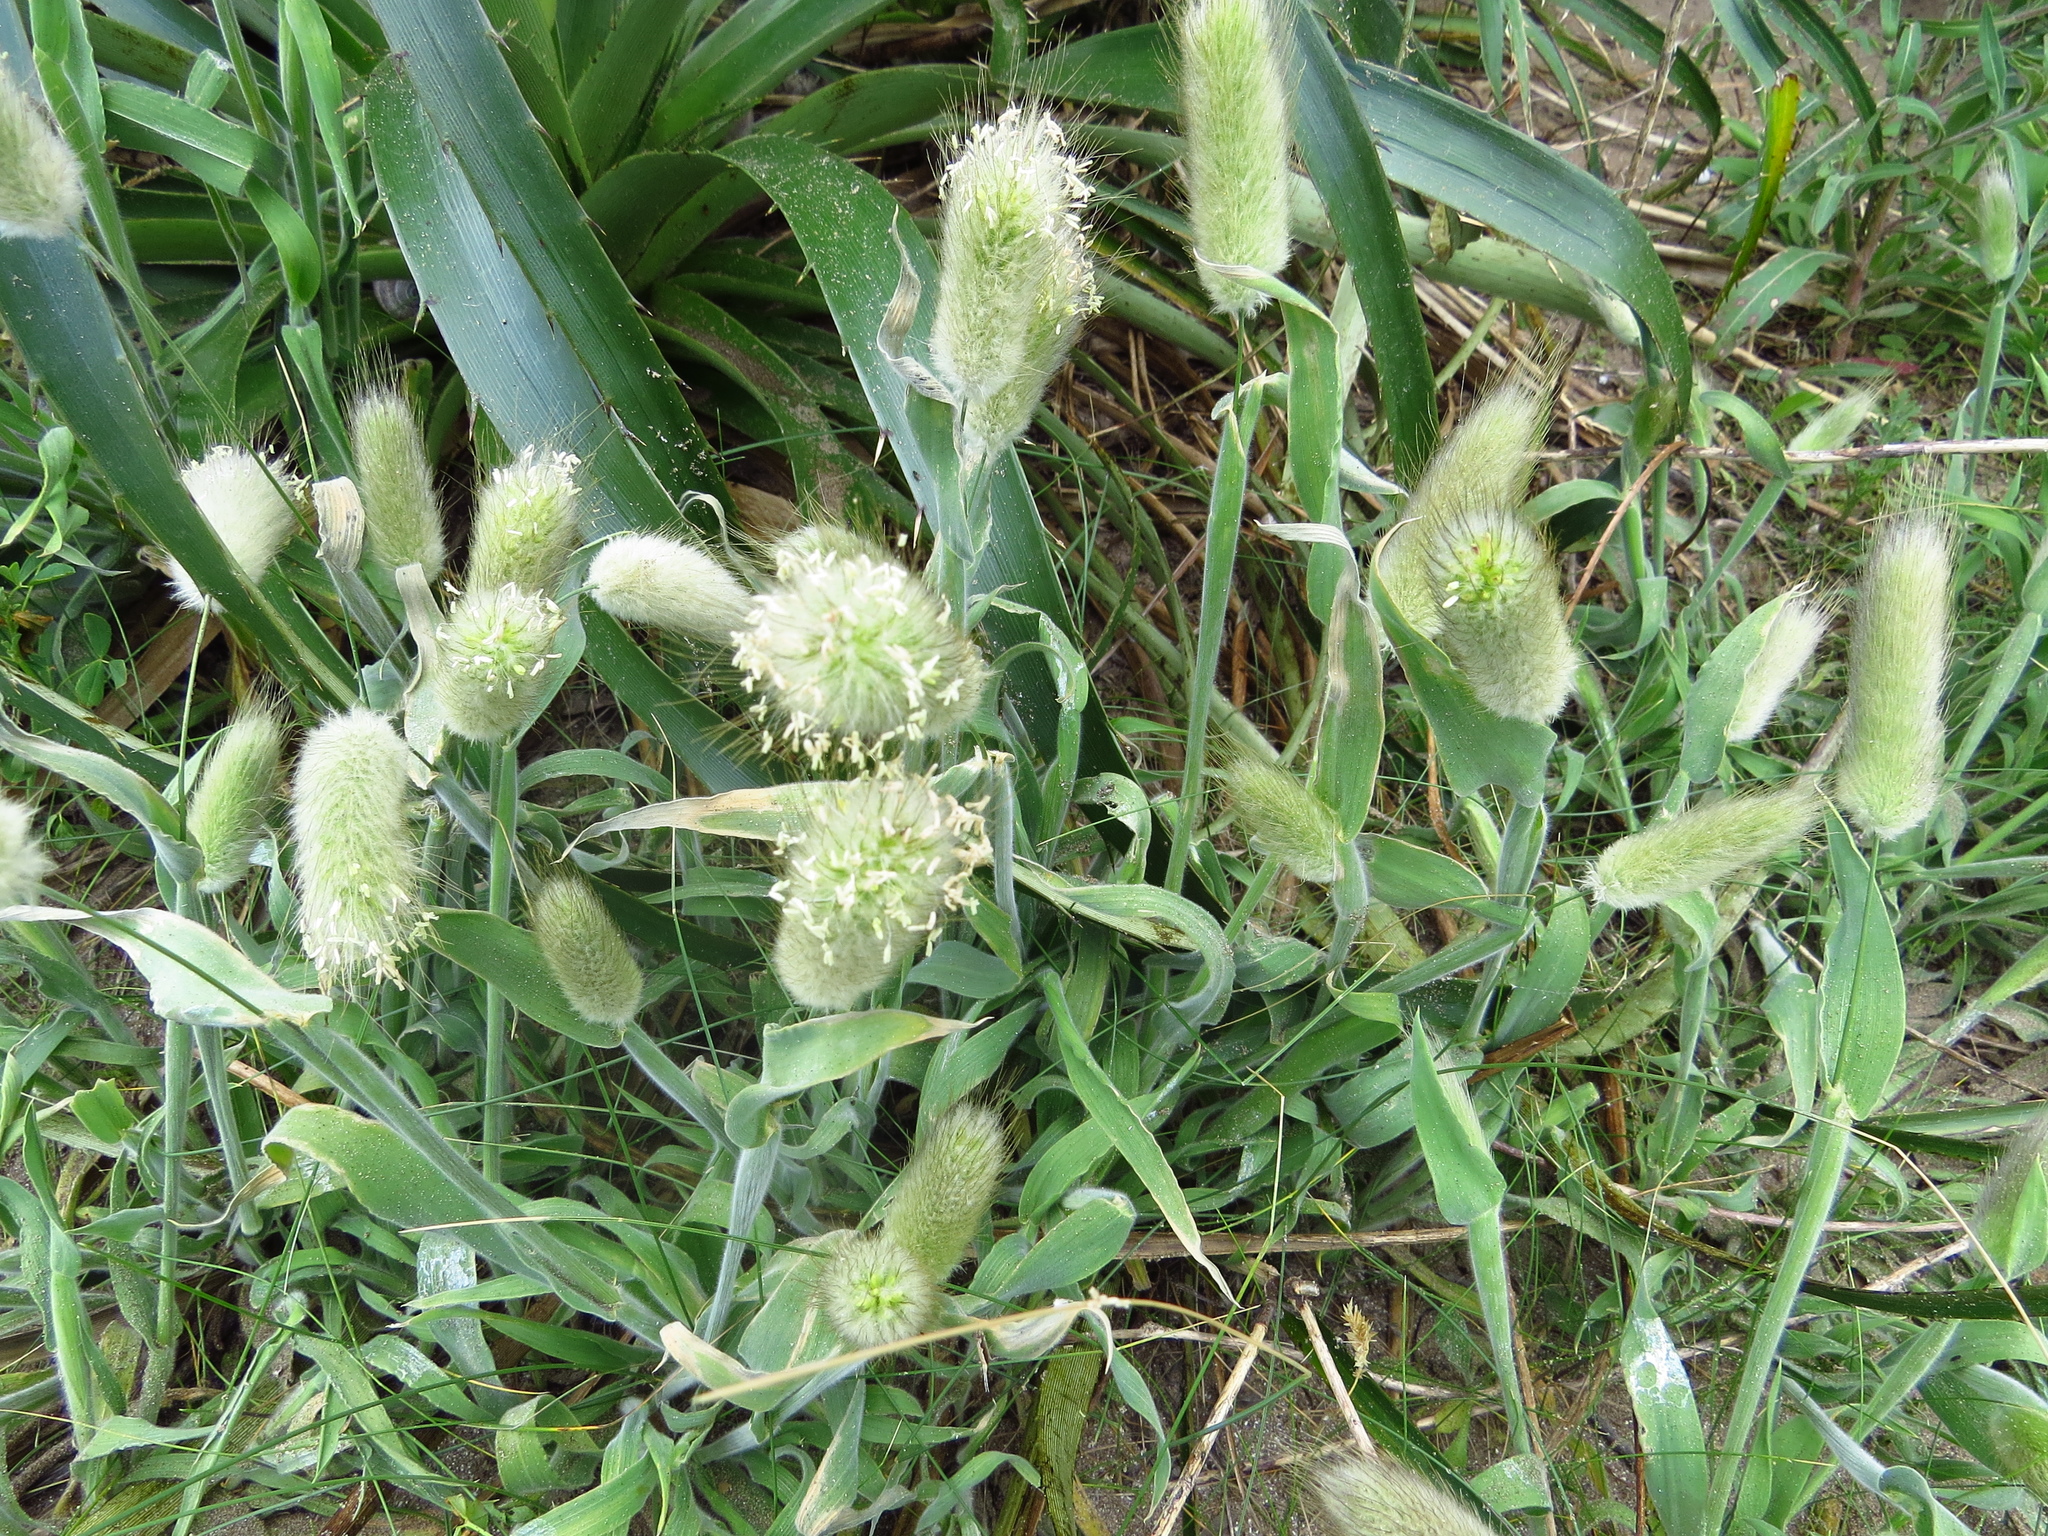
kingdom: Plantae
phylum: Tracheophyta
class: Liliopsida
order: Poales
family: Poaceae
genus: Polypogon
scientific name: Polypogon monspeliensis
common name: Annual rabbitsfoot grass
